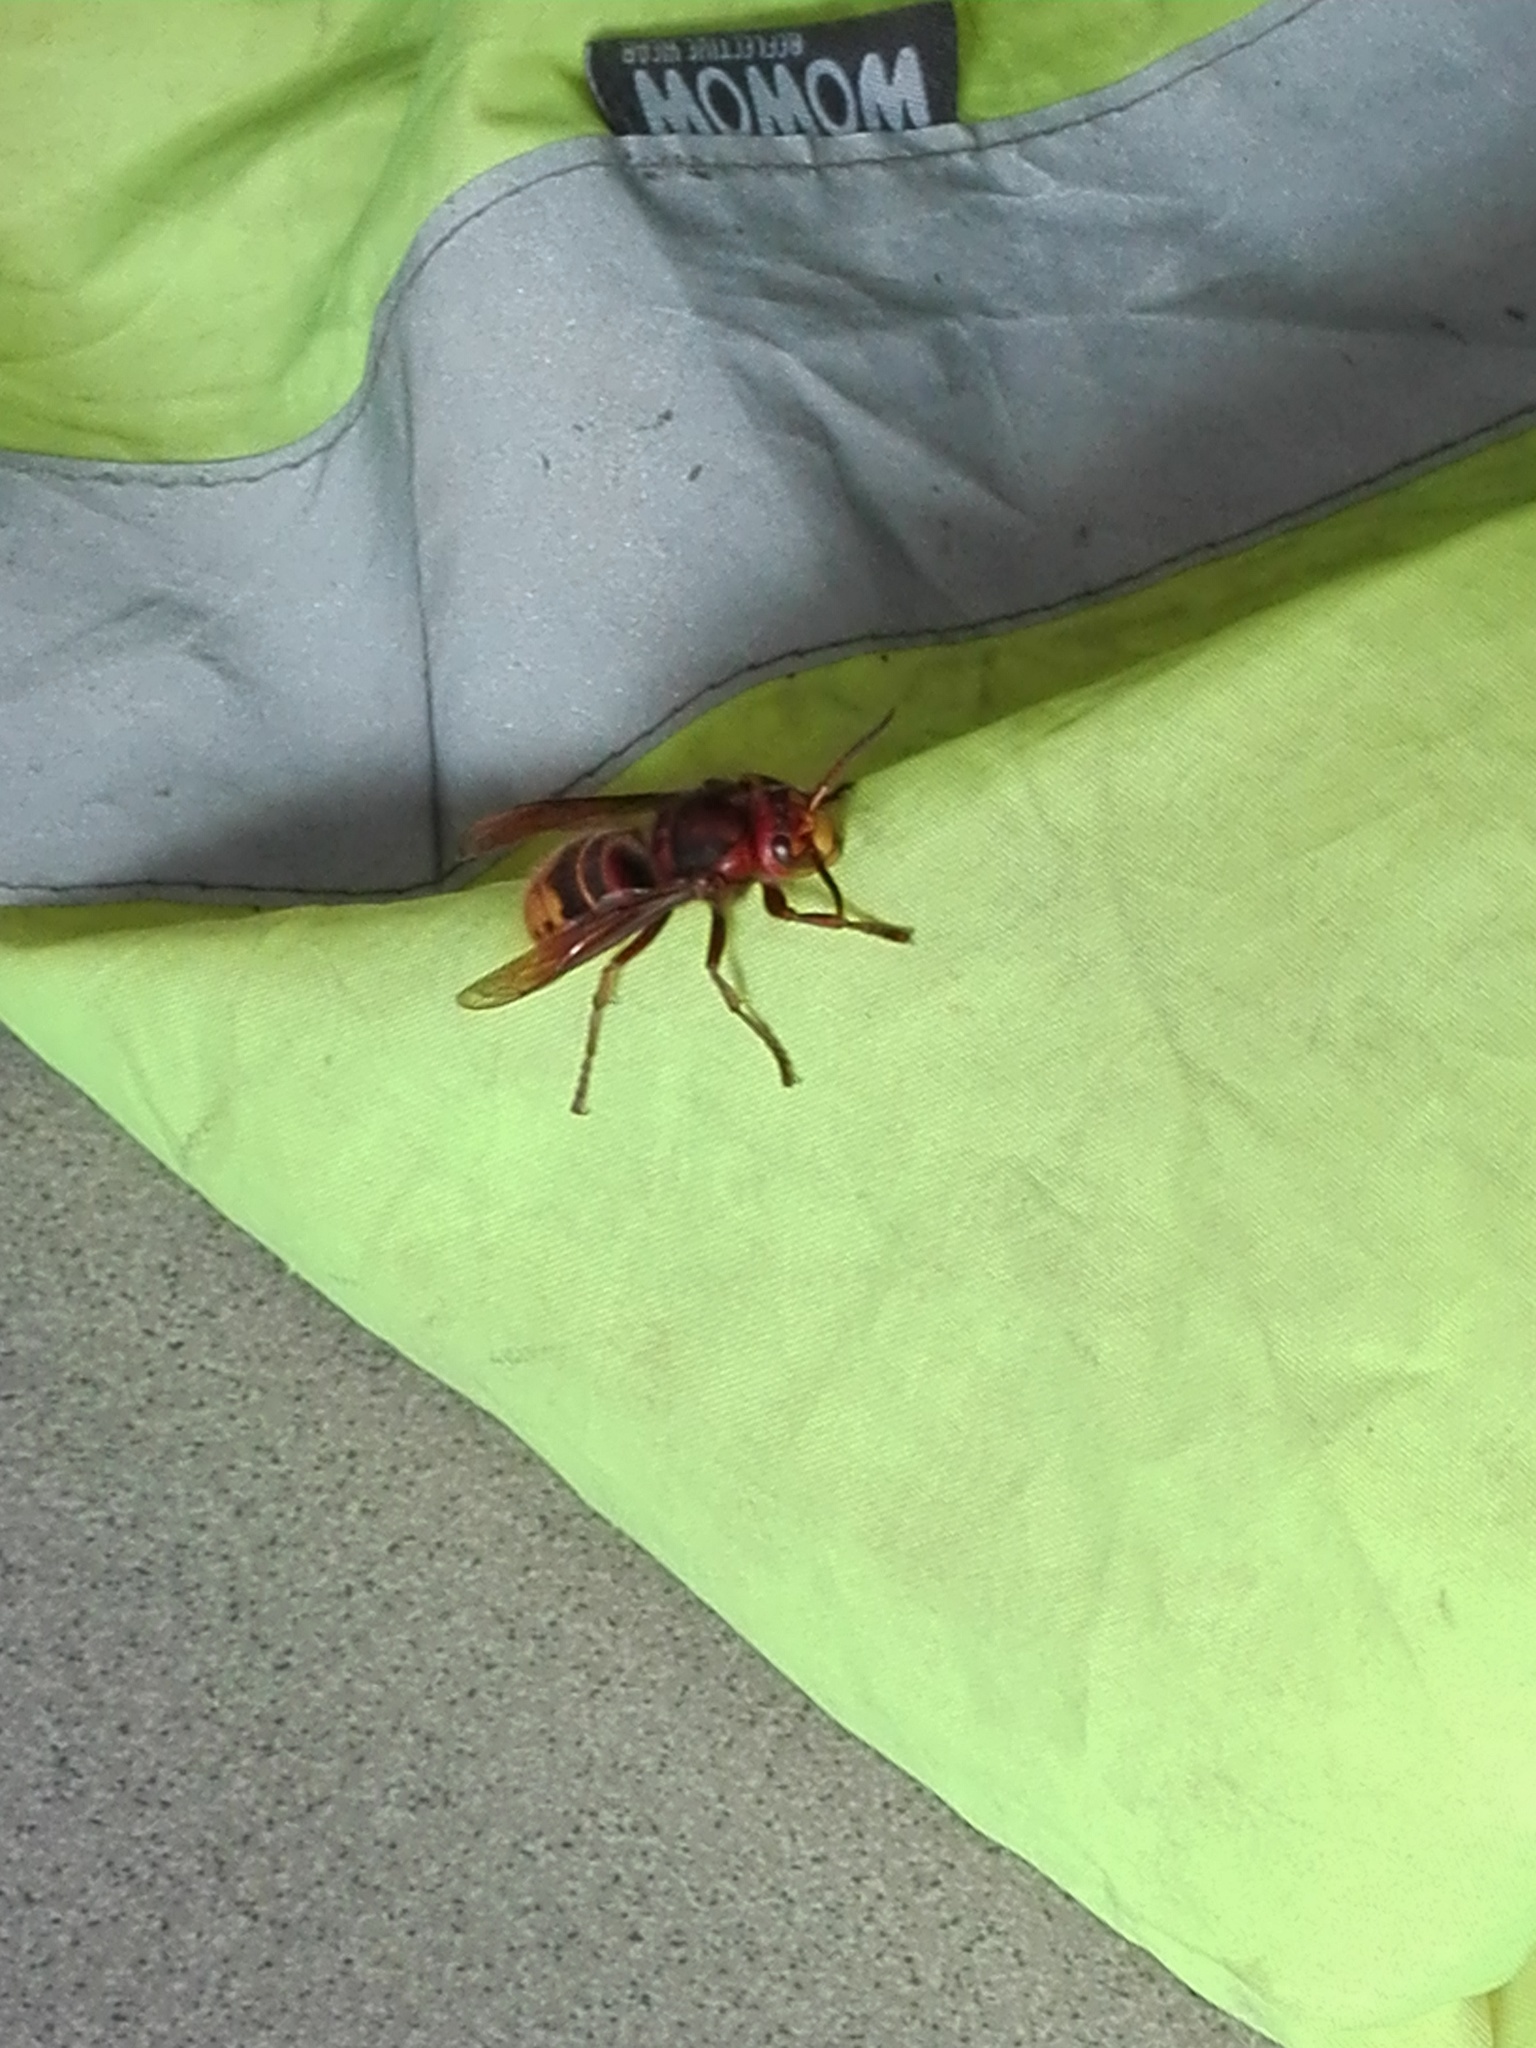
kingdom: Animalia
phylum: Arthropoda
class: Insecta
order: Hymenoptera
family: Vespidae
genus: Vespa
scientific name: Vespa crabro
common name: Hornet
